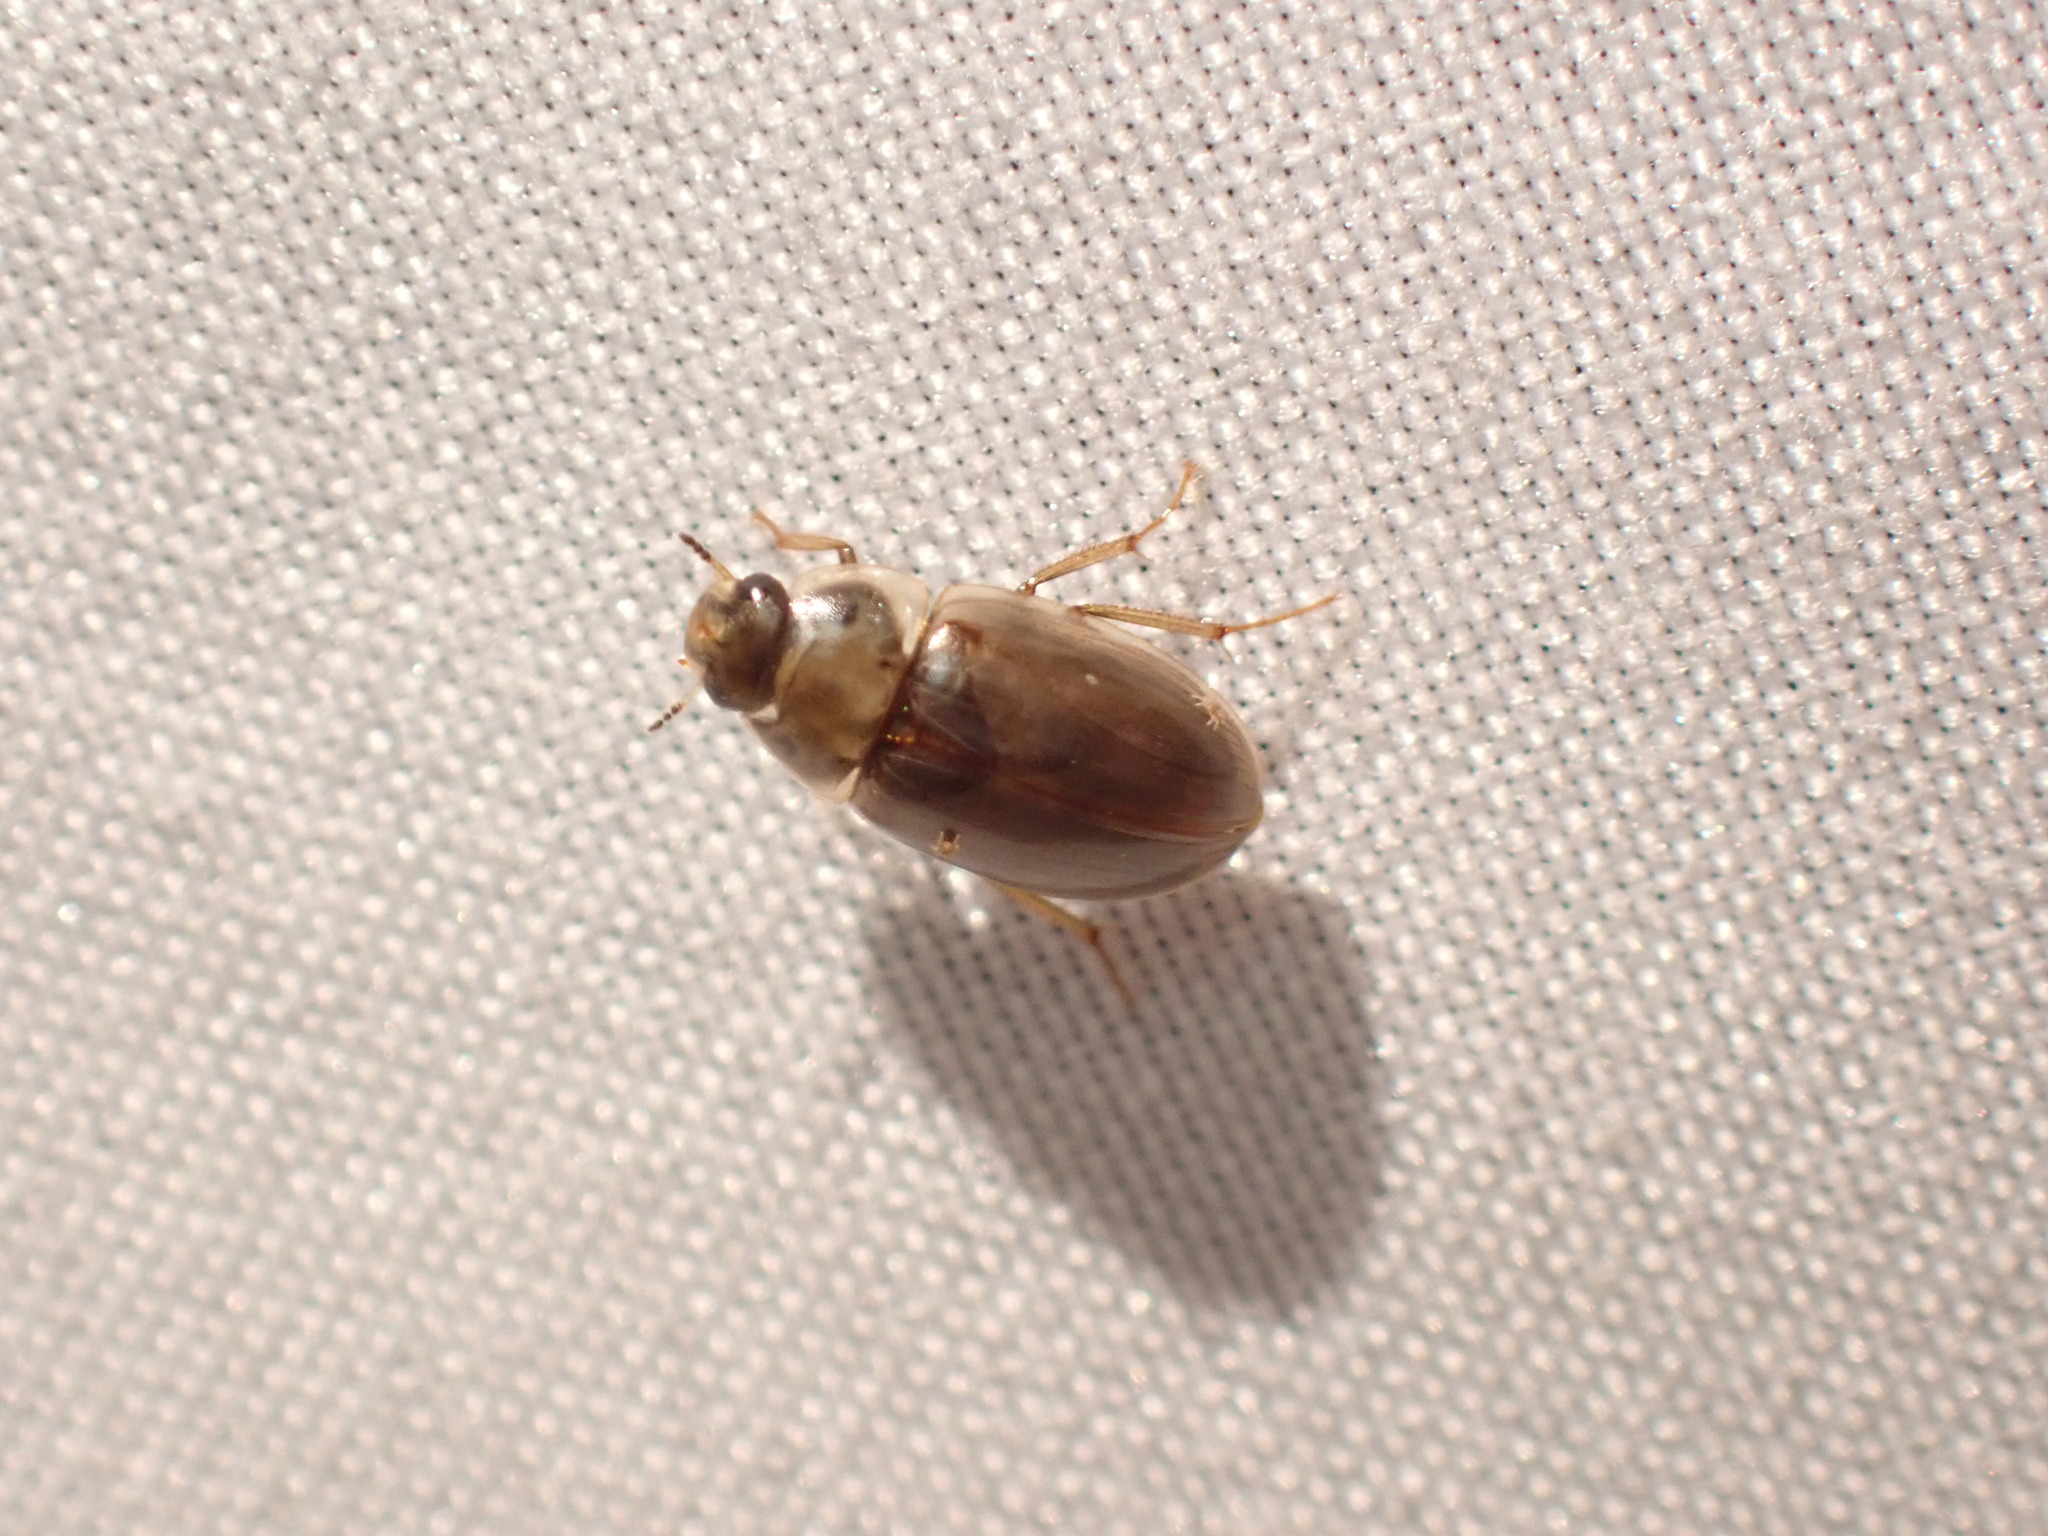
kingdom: Animalia
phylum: Arthropoda
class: Insecta
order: Coleoptera
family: Hydrophilidae
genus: Enochrus
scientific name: Enochrus
